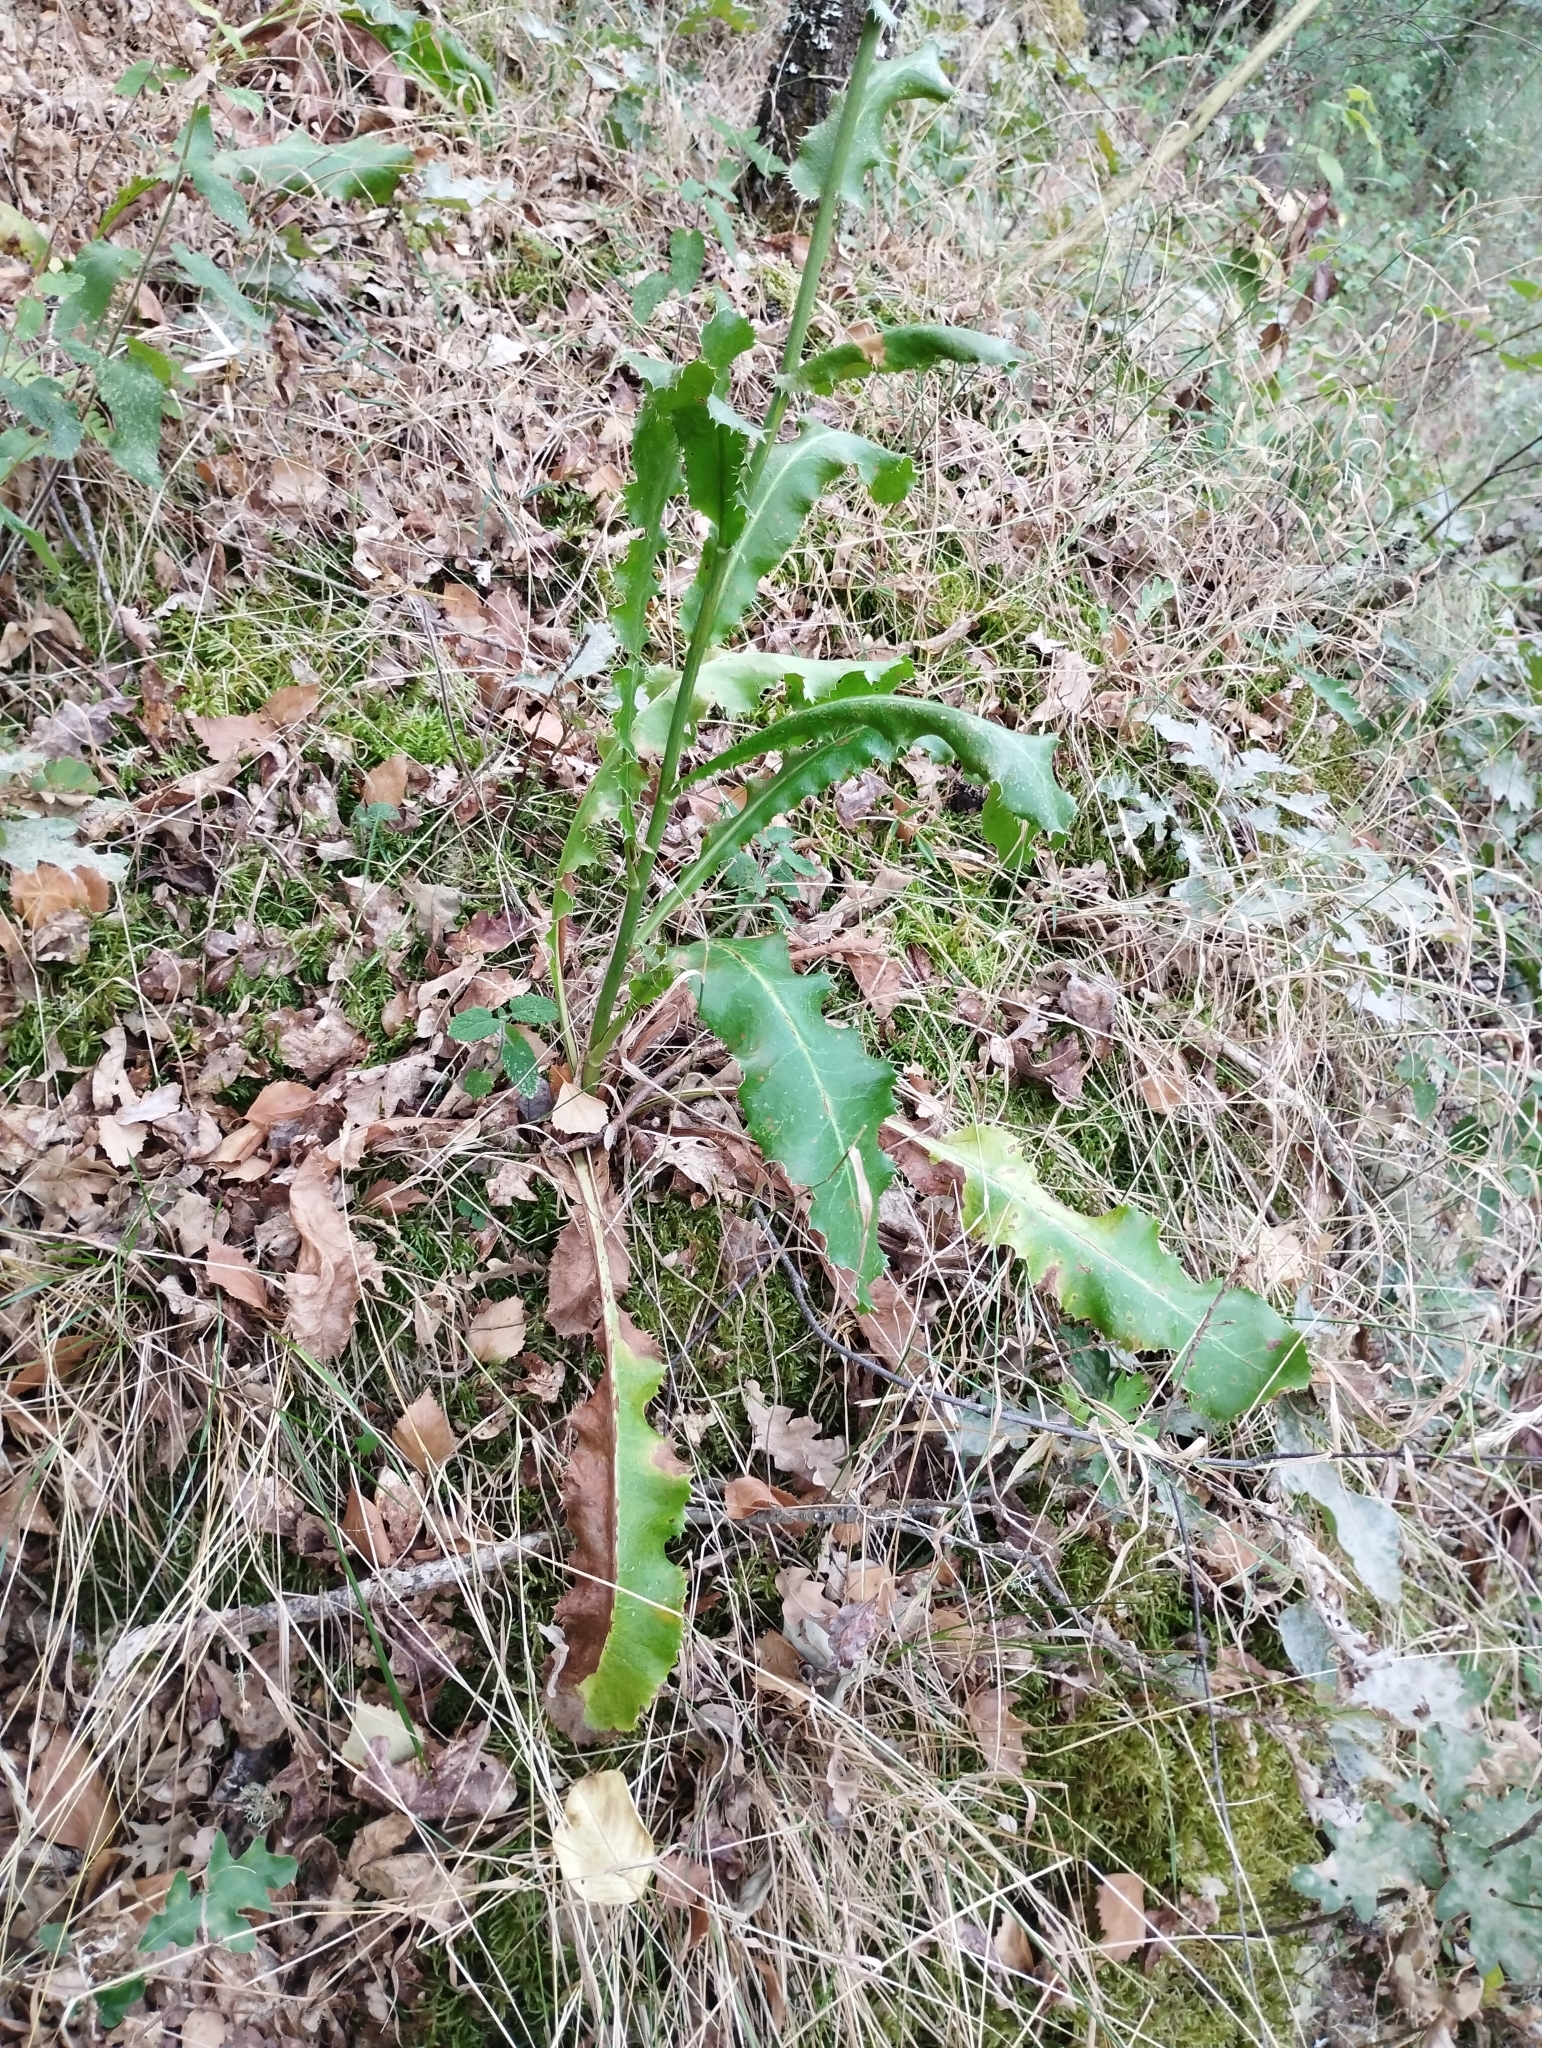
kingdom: Plantae
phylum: Tracheophyta
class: Magnoliopsida
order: Apiales
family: Apiaceae
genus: Eryngium
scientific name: Eryngium duriaei
